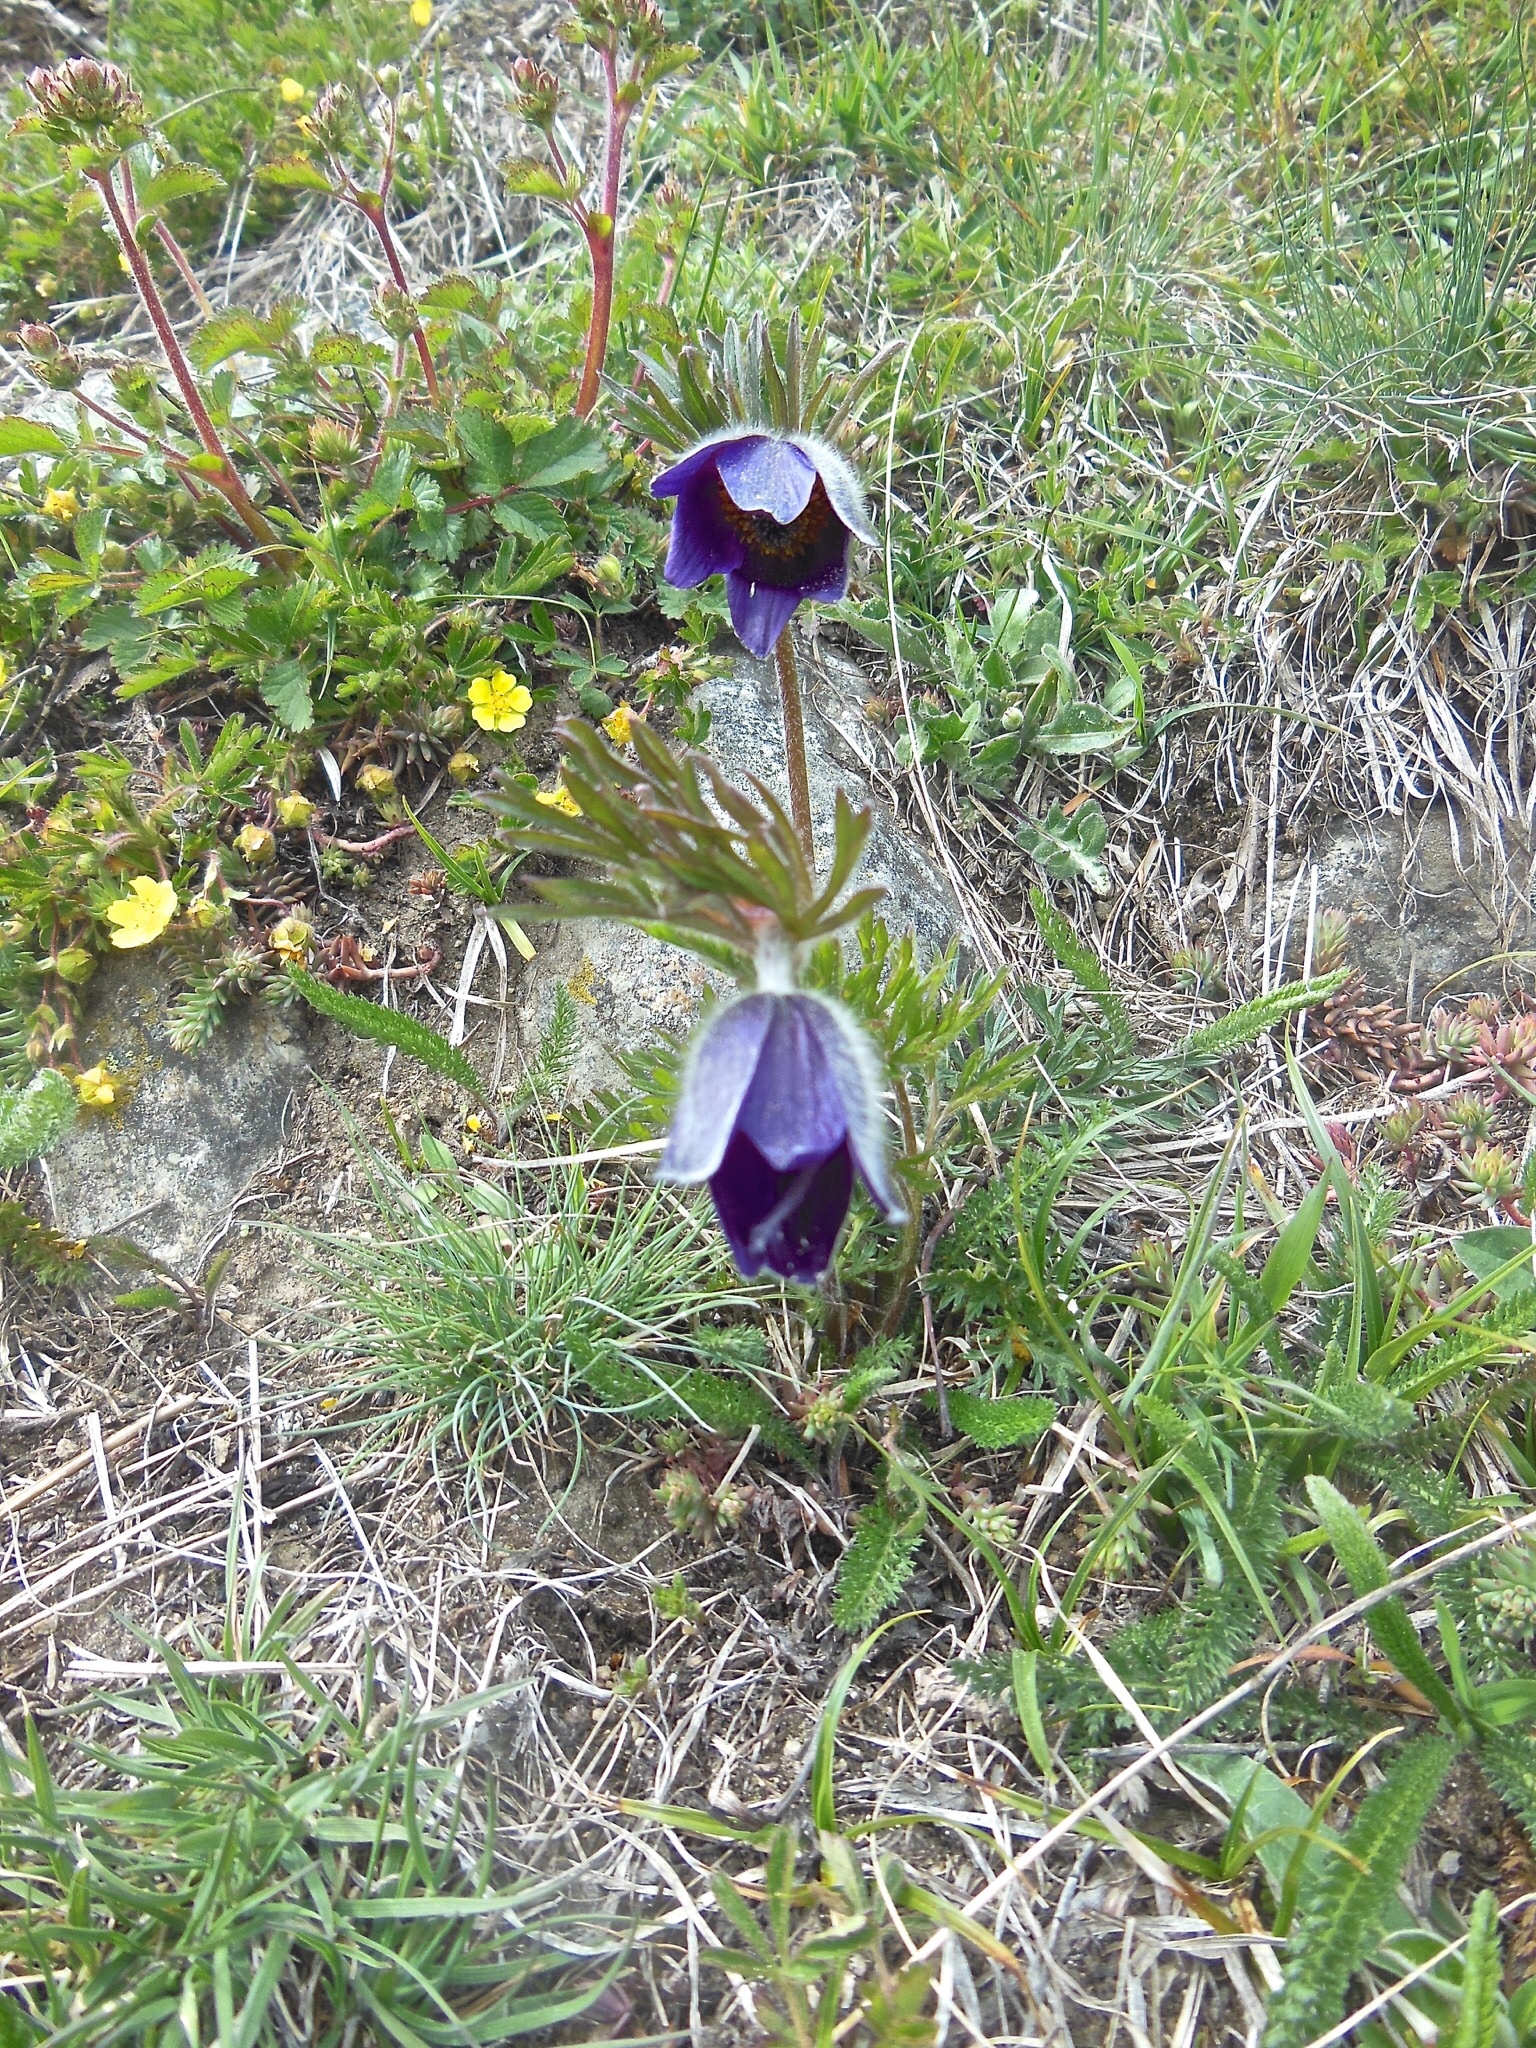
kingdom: Plantae
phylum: Tracheophyta
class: Magnoliopsida
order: Ranunculales
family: Ranunculaceae
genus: Pulsatilla
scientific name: Pulsatilla montana
